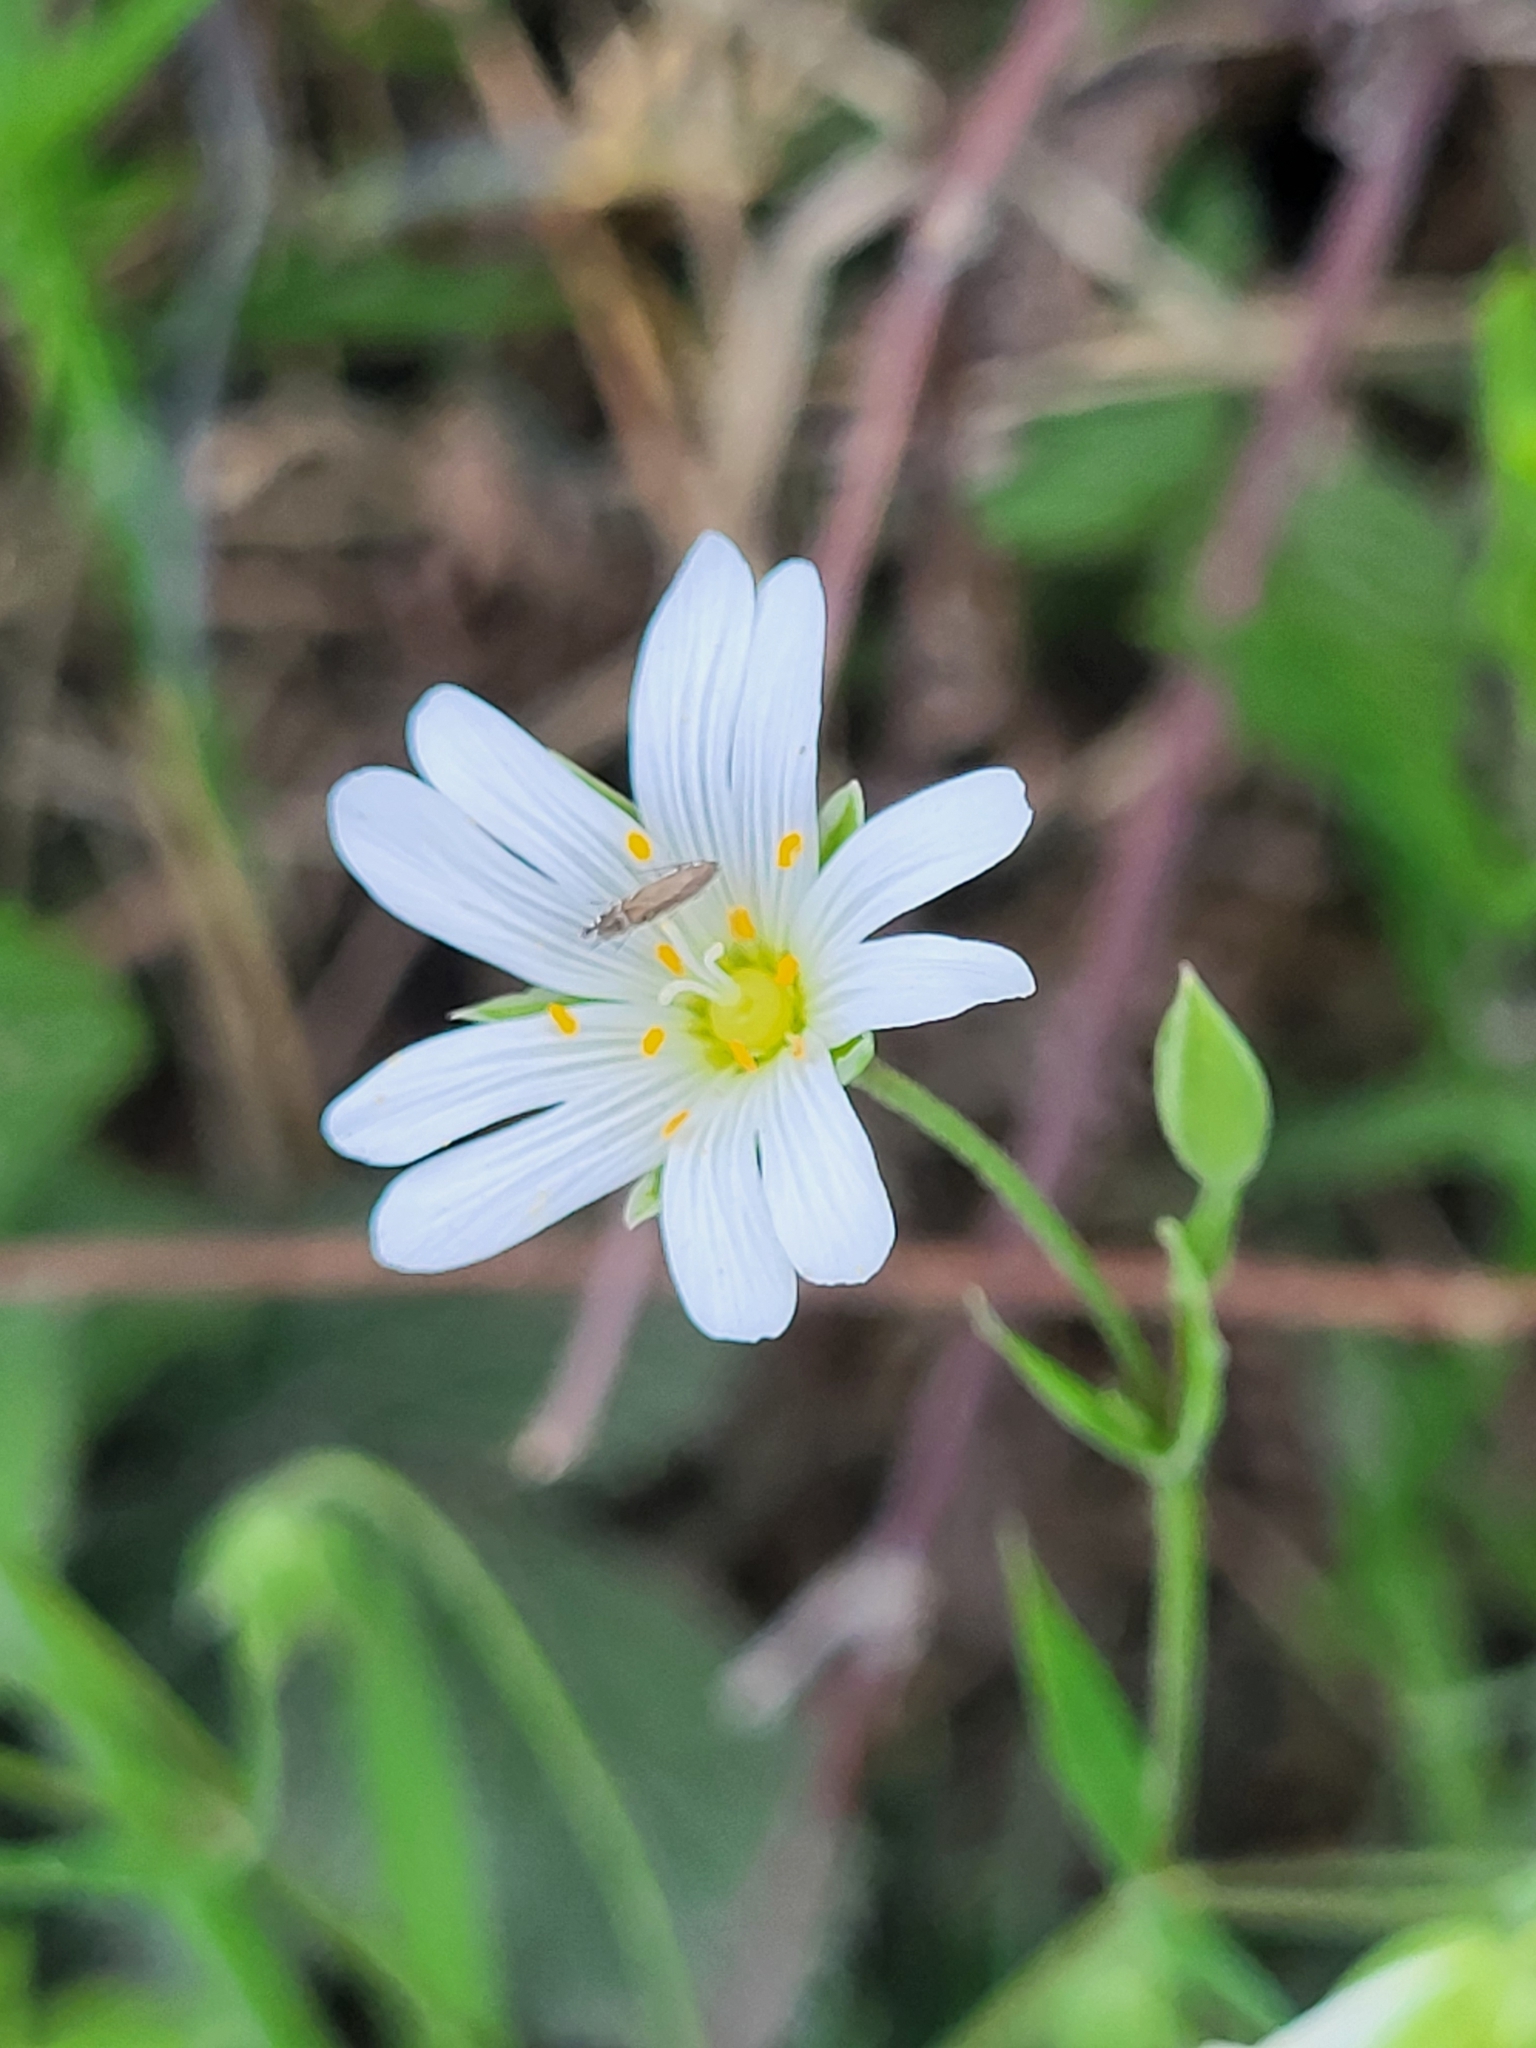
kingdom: Plantae
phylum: Tracheophyta
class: Magnoliopsida
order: Caryophyllales
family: Caryophyllaceae
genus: Rabelera
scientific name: Rabelera holostea
